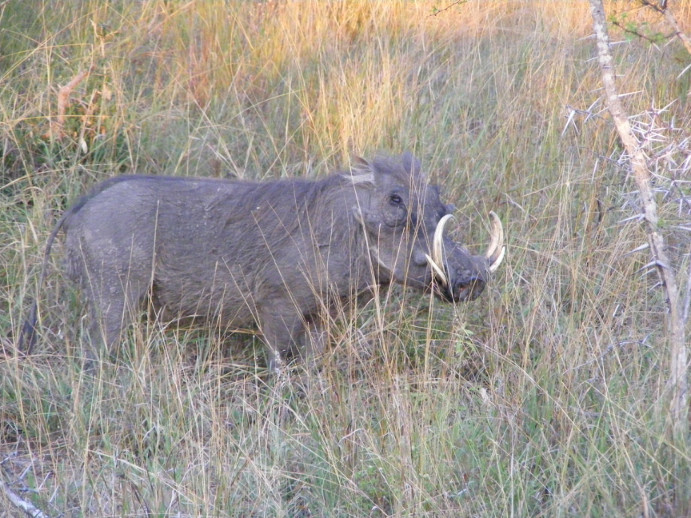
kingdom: Animalia
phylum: Chordata
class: Mammalia
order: Artiodactyla
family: Suidae
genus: Phacochoerus
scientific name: Phacochoerus africanus
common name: Common warthog
